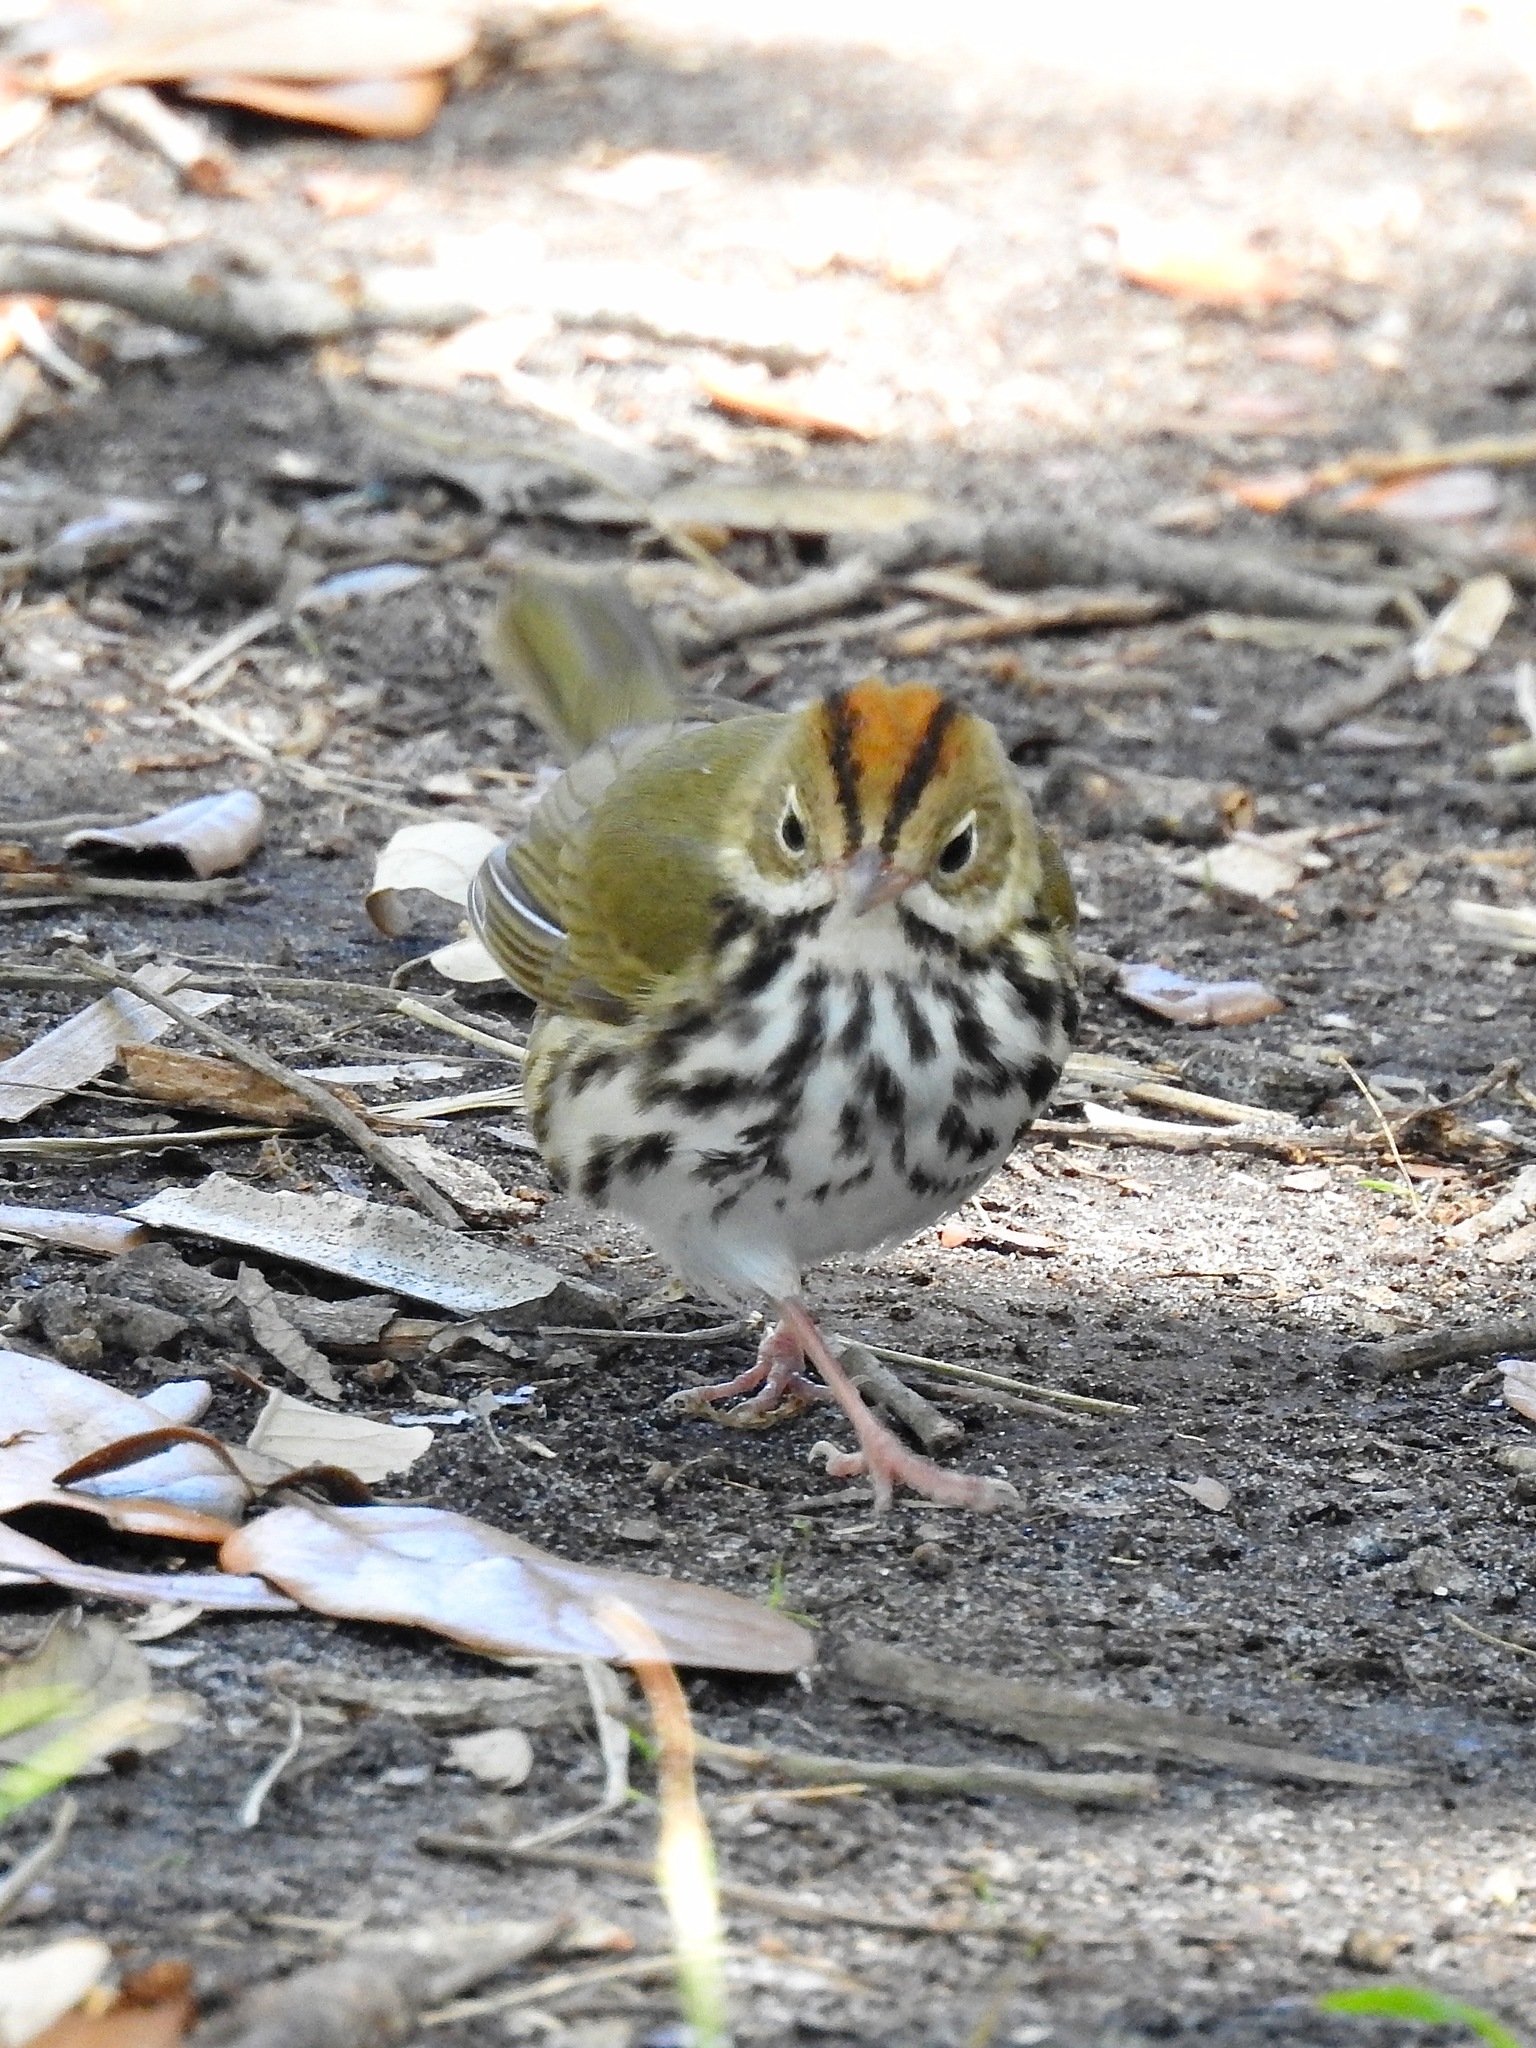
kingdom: Animalia
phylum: Chordata
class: Aves
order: Passeriformes
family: Parulidae
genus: Seiurus
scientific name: Seiurus aurocapilla
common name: Ovenbird
